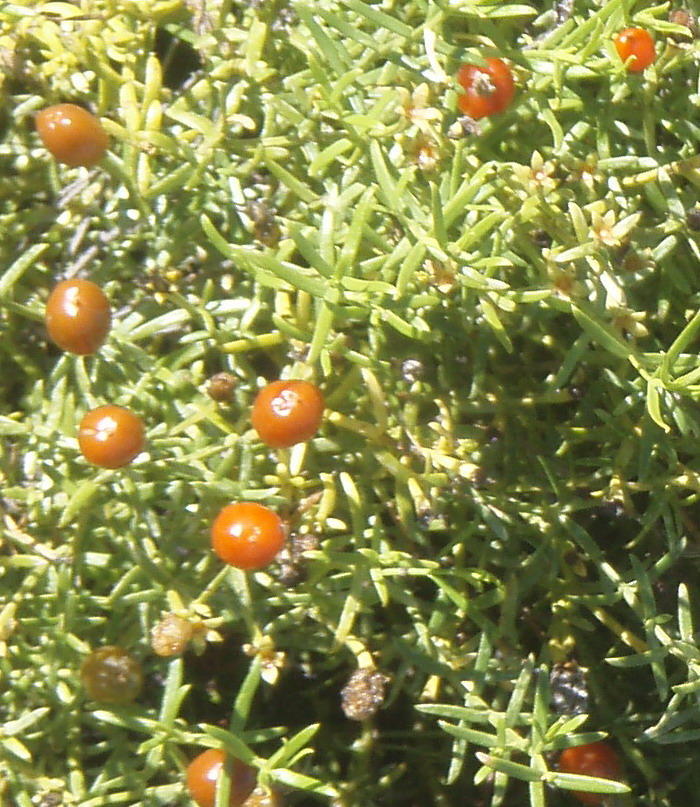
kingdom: Plantae
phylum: Tracheophyta
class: Magnoliopsida
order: Gentianales
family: Gentianaceae
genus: Chironia
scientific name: Chironia baccifera
